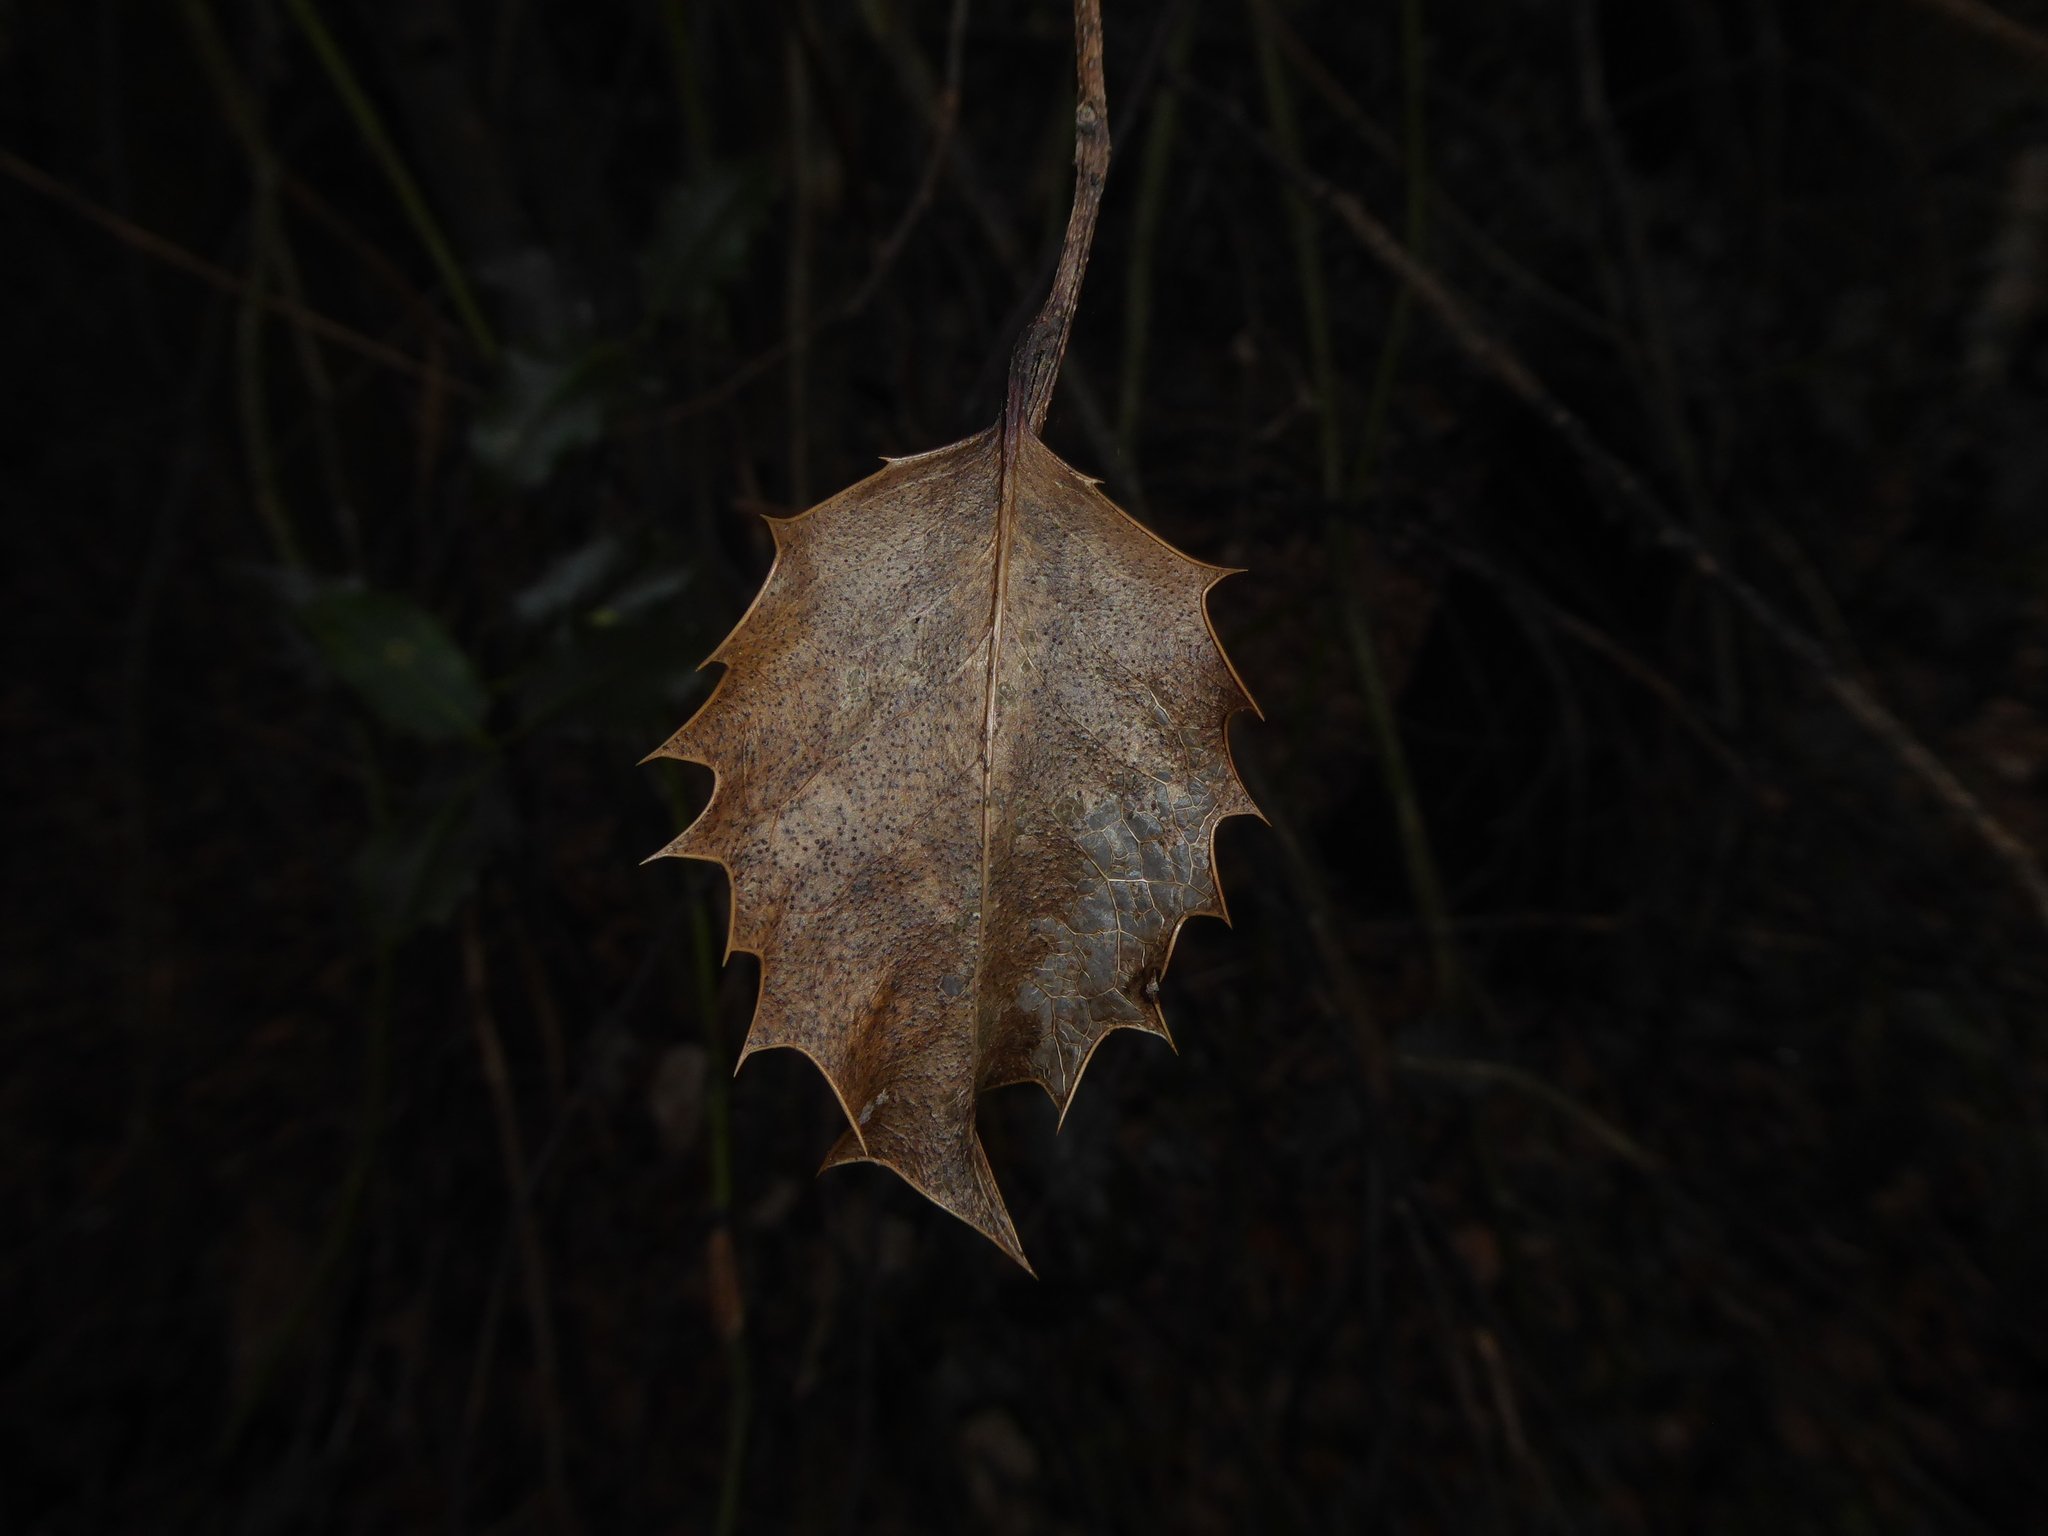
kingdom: Fungi
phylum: Ascomycota
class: Leotiomycetes
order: Helotiales
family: Cenangiaceae
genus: Trochila
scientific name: Trochila ilicina
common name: Holly speckle
